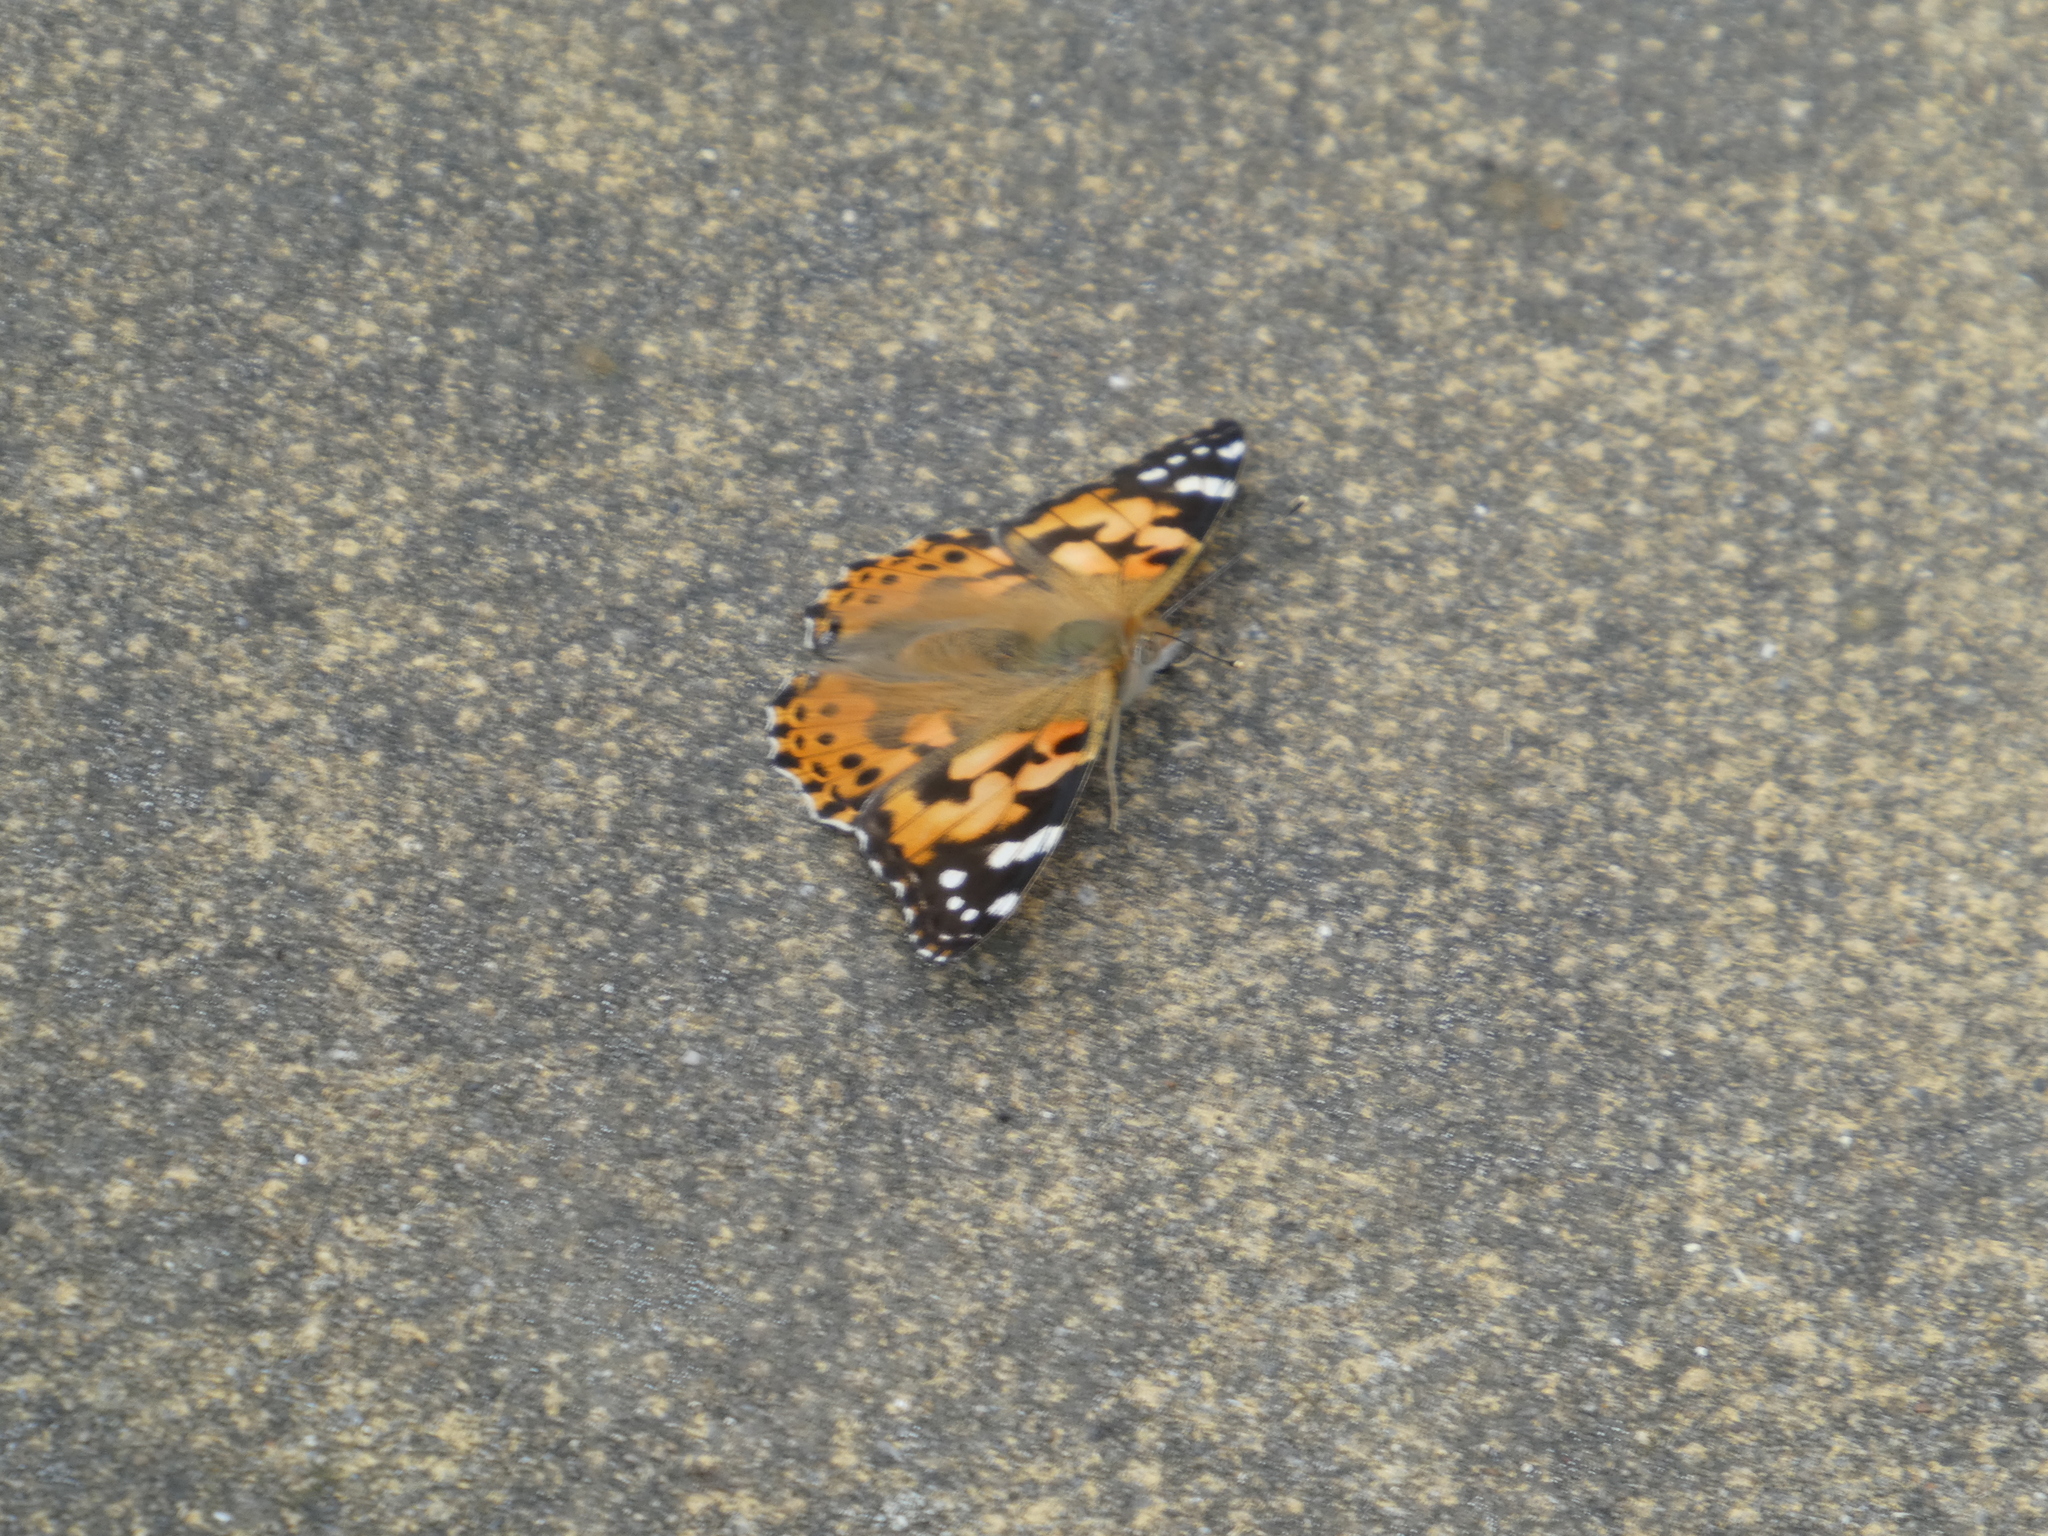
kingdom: Animalia
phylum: Arthropoda
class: Insecta
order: Lepidoptera
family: Nymphalidae
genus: Vanessa
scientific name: Vanessa cardui
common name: Painted lady
